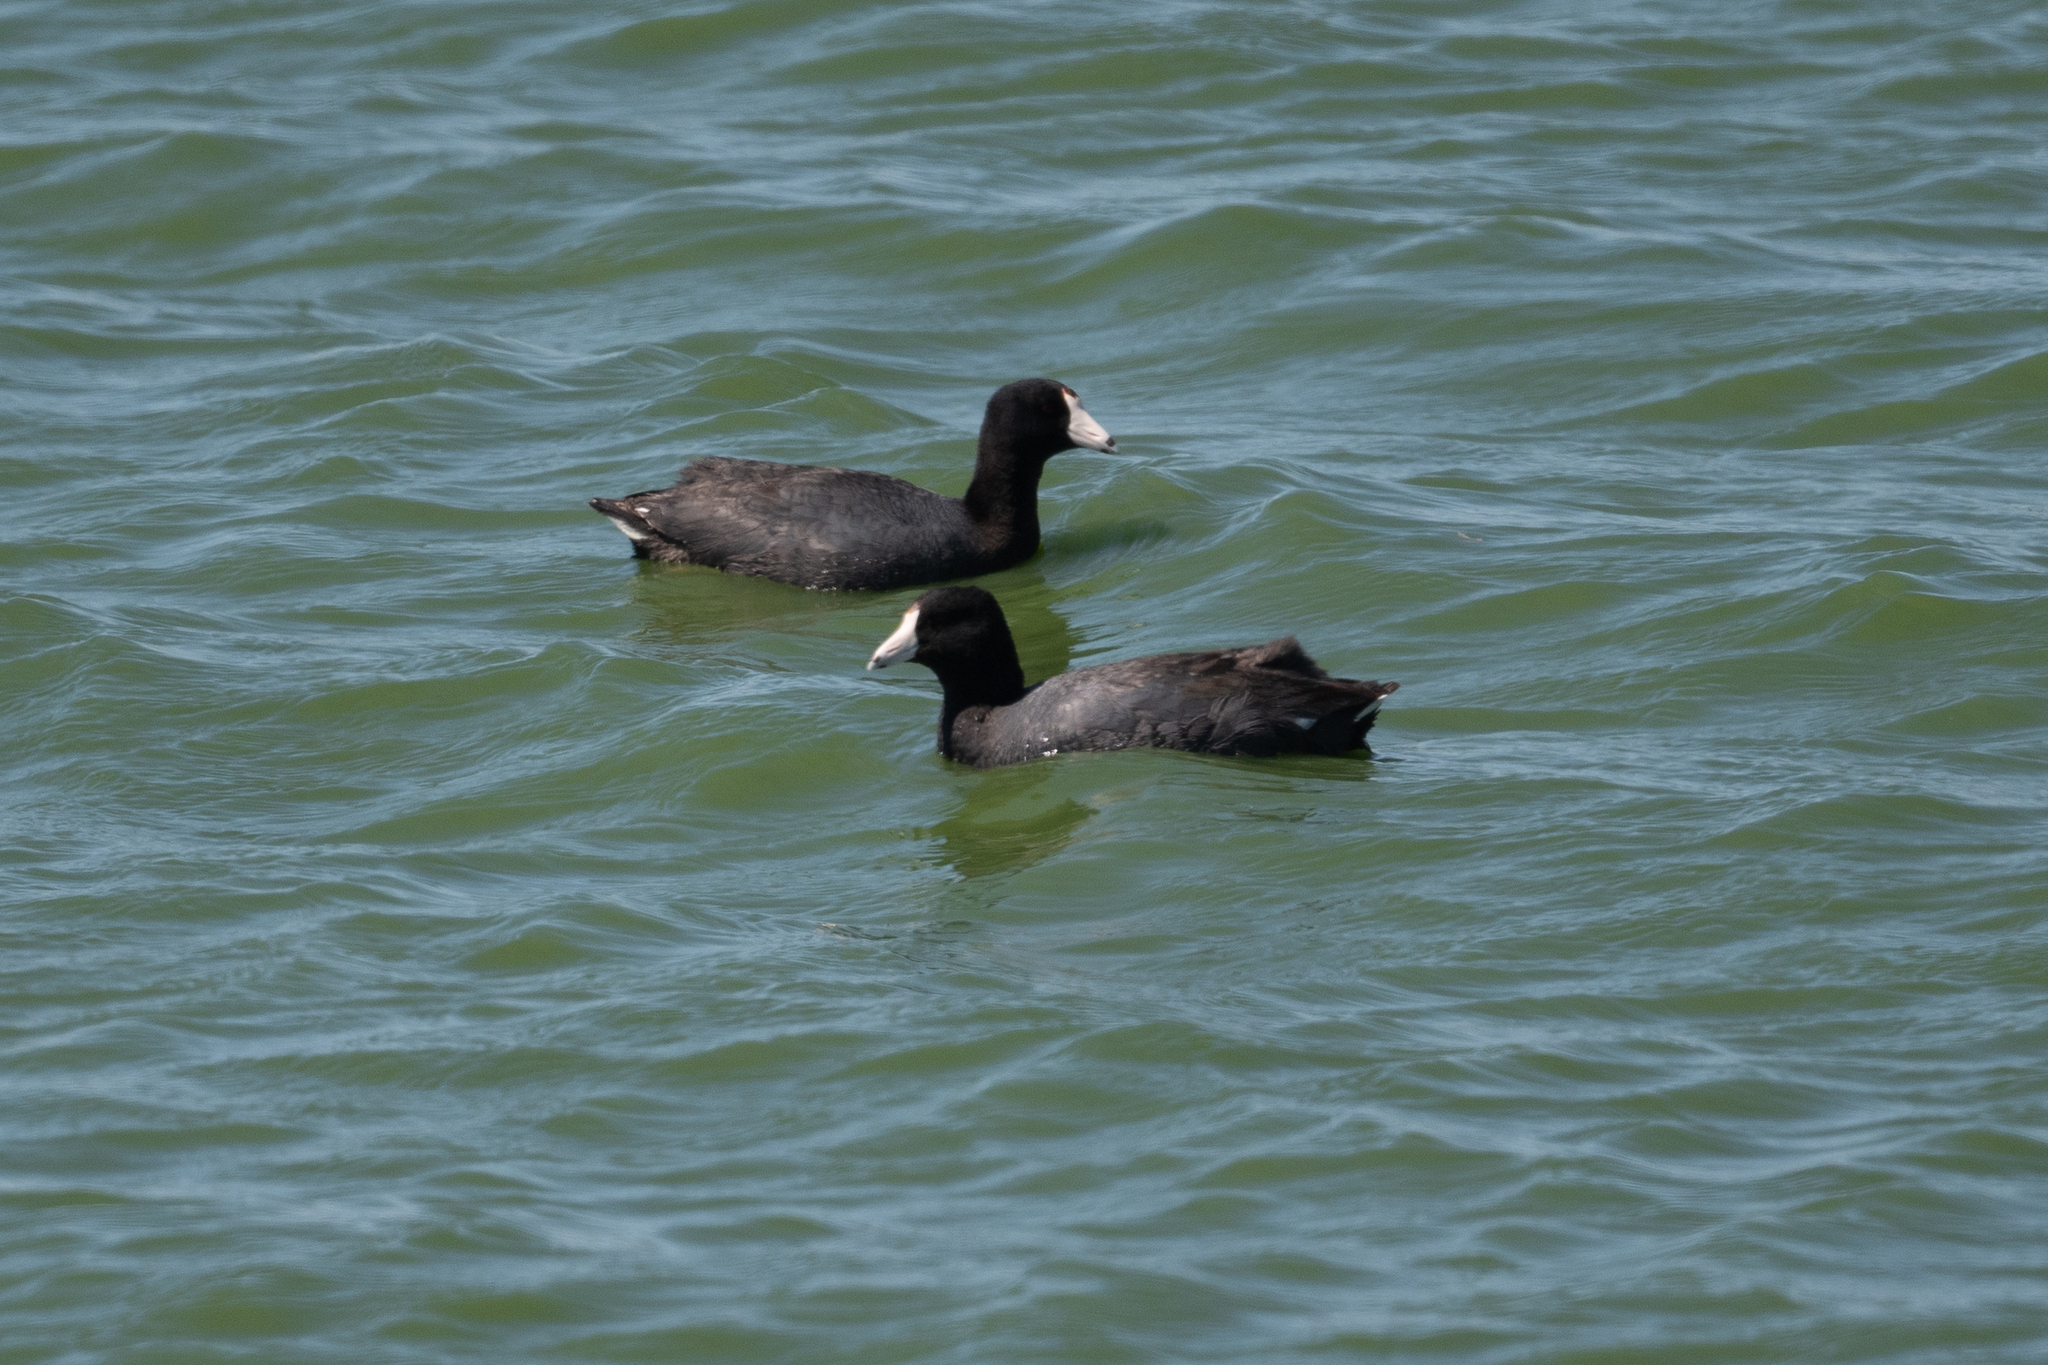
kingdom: Animalia
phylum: Chordata
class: Aves
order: Gruiformes
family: Rallidae
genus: Fulica
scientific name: Fulica americana
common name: American coot
